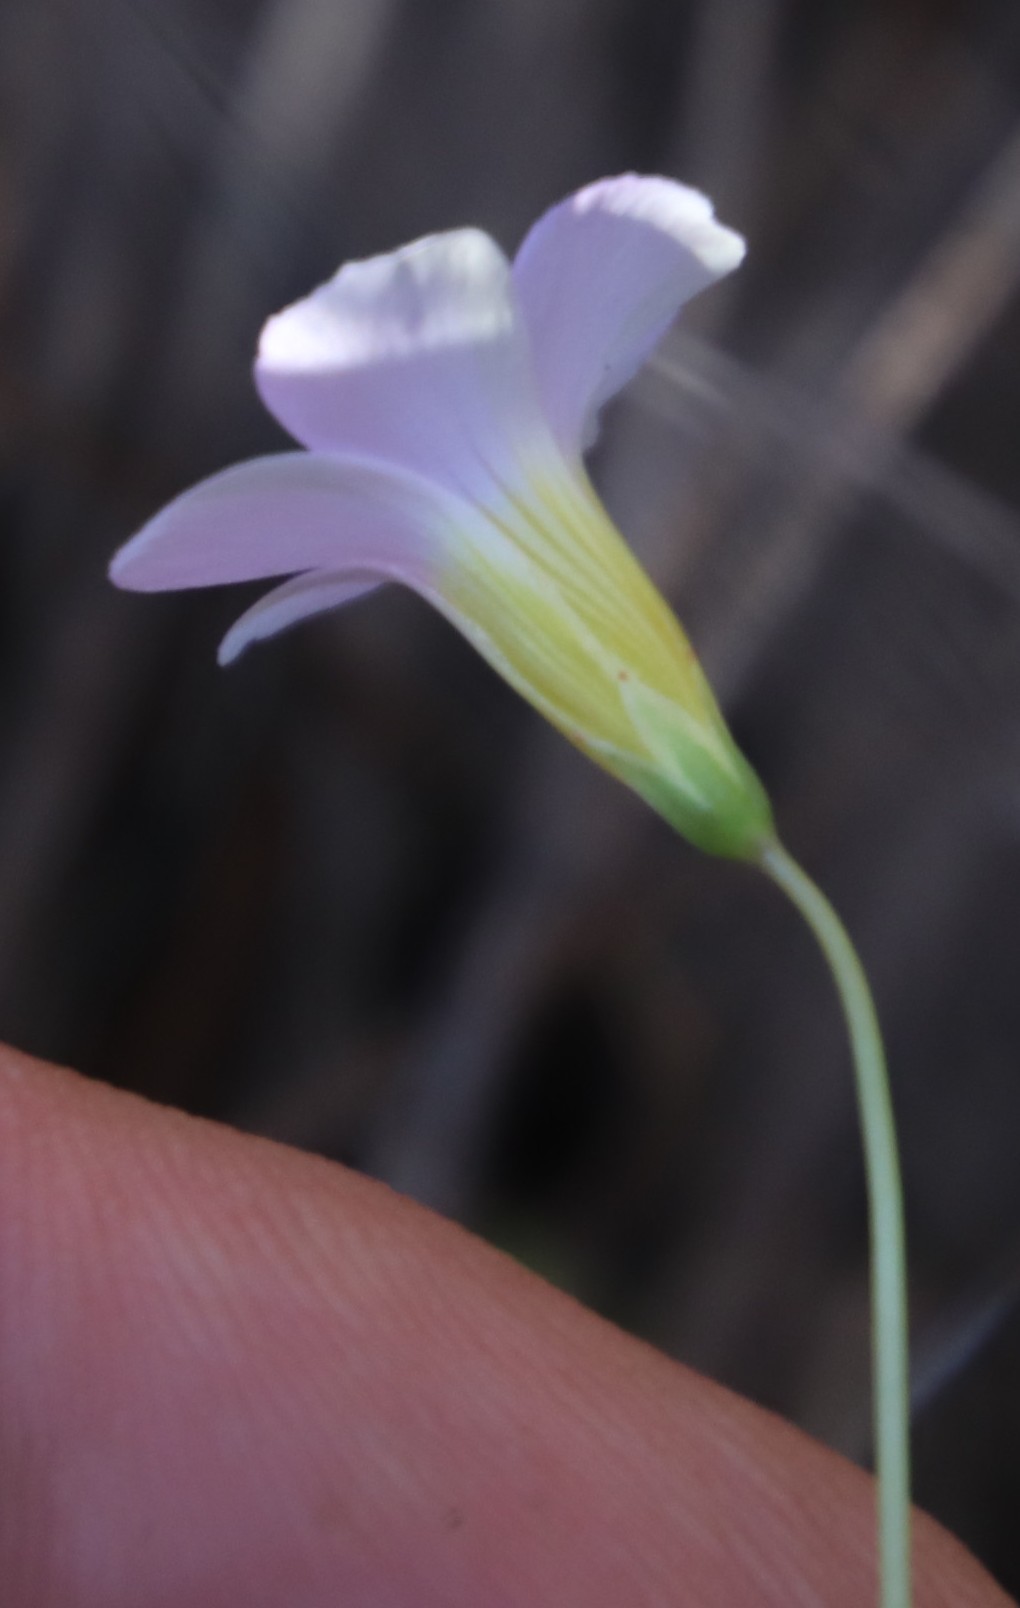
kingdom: Plantae
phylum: Tracheophyta
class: Magnoliopsida
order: Oxalidales
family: Oxalidaceae
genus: Oxalis
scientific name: Oxalis caprina
